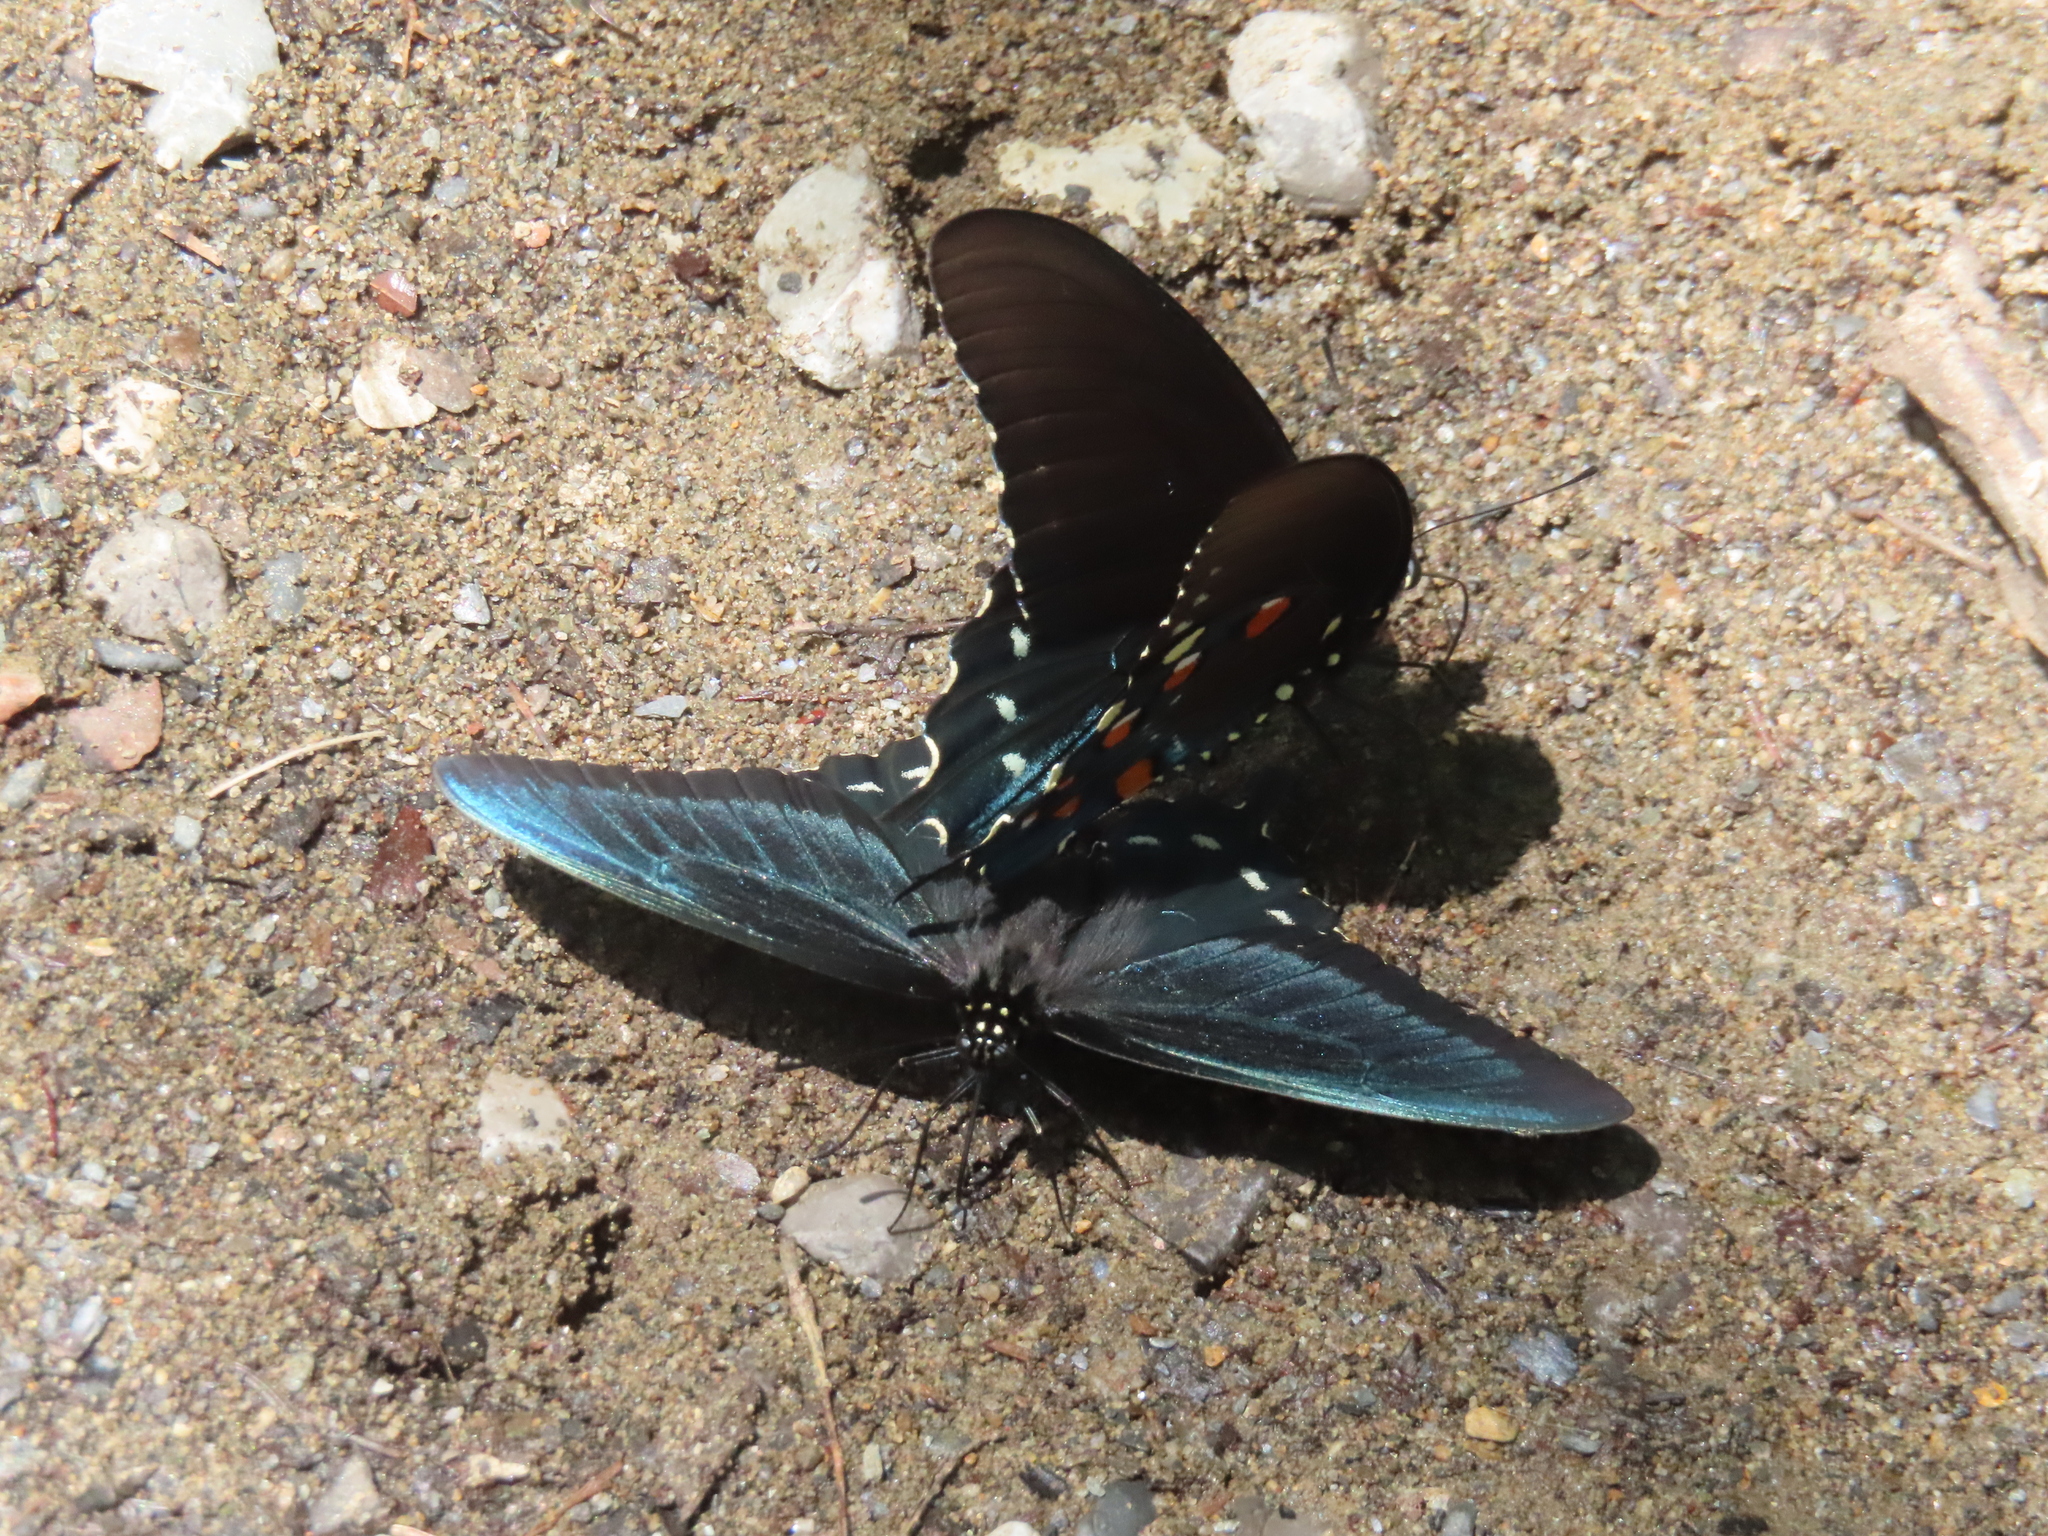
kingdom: Animalia
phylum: Arthropoda
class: Insecta
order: Lepidoptera
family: Papilionidae
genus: Battus
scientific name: Battus philenor
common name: Pipevine swallowtail
